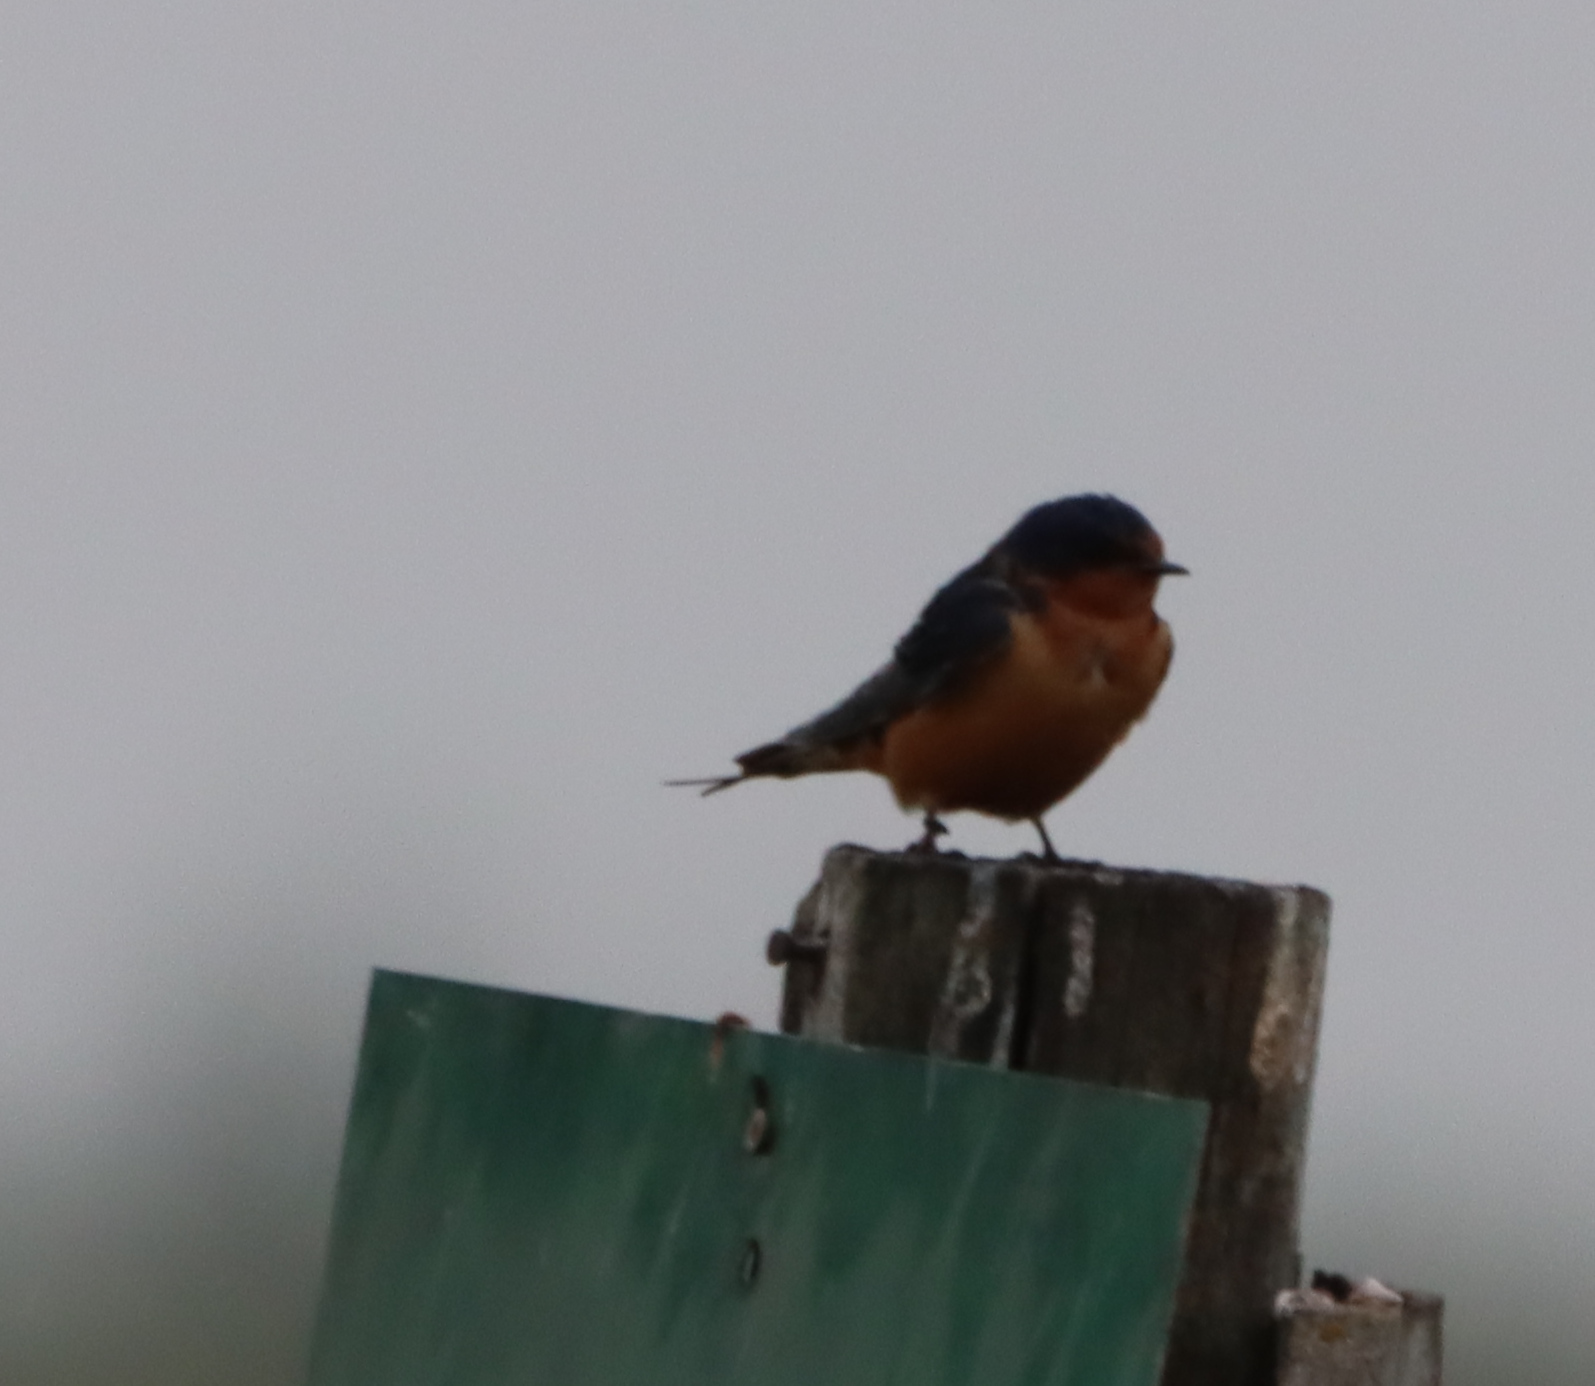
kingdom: Animalia
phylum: Chordata
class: Aves
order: Passeriformes
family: Hirundinidae
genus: Hirundo
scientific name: Hirundo rustica
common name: Barn swallow
